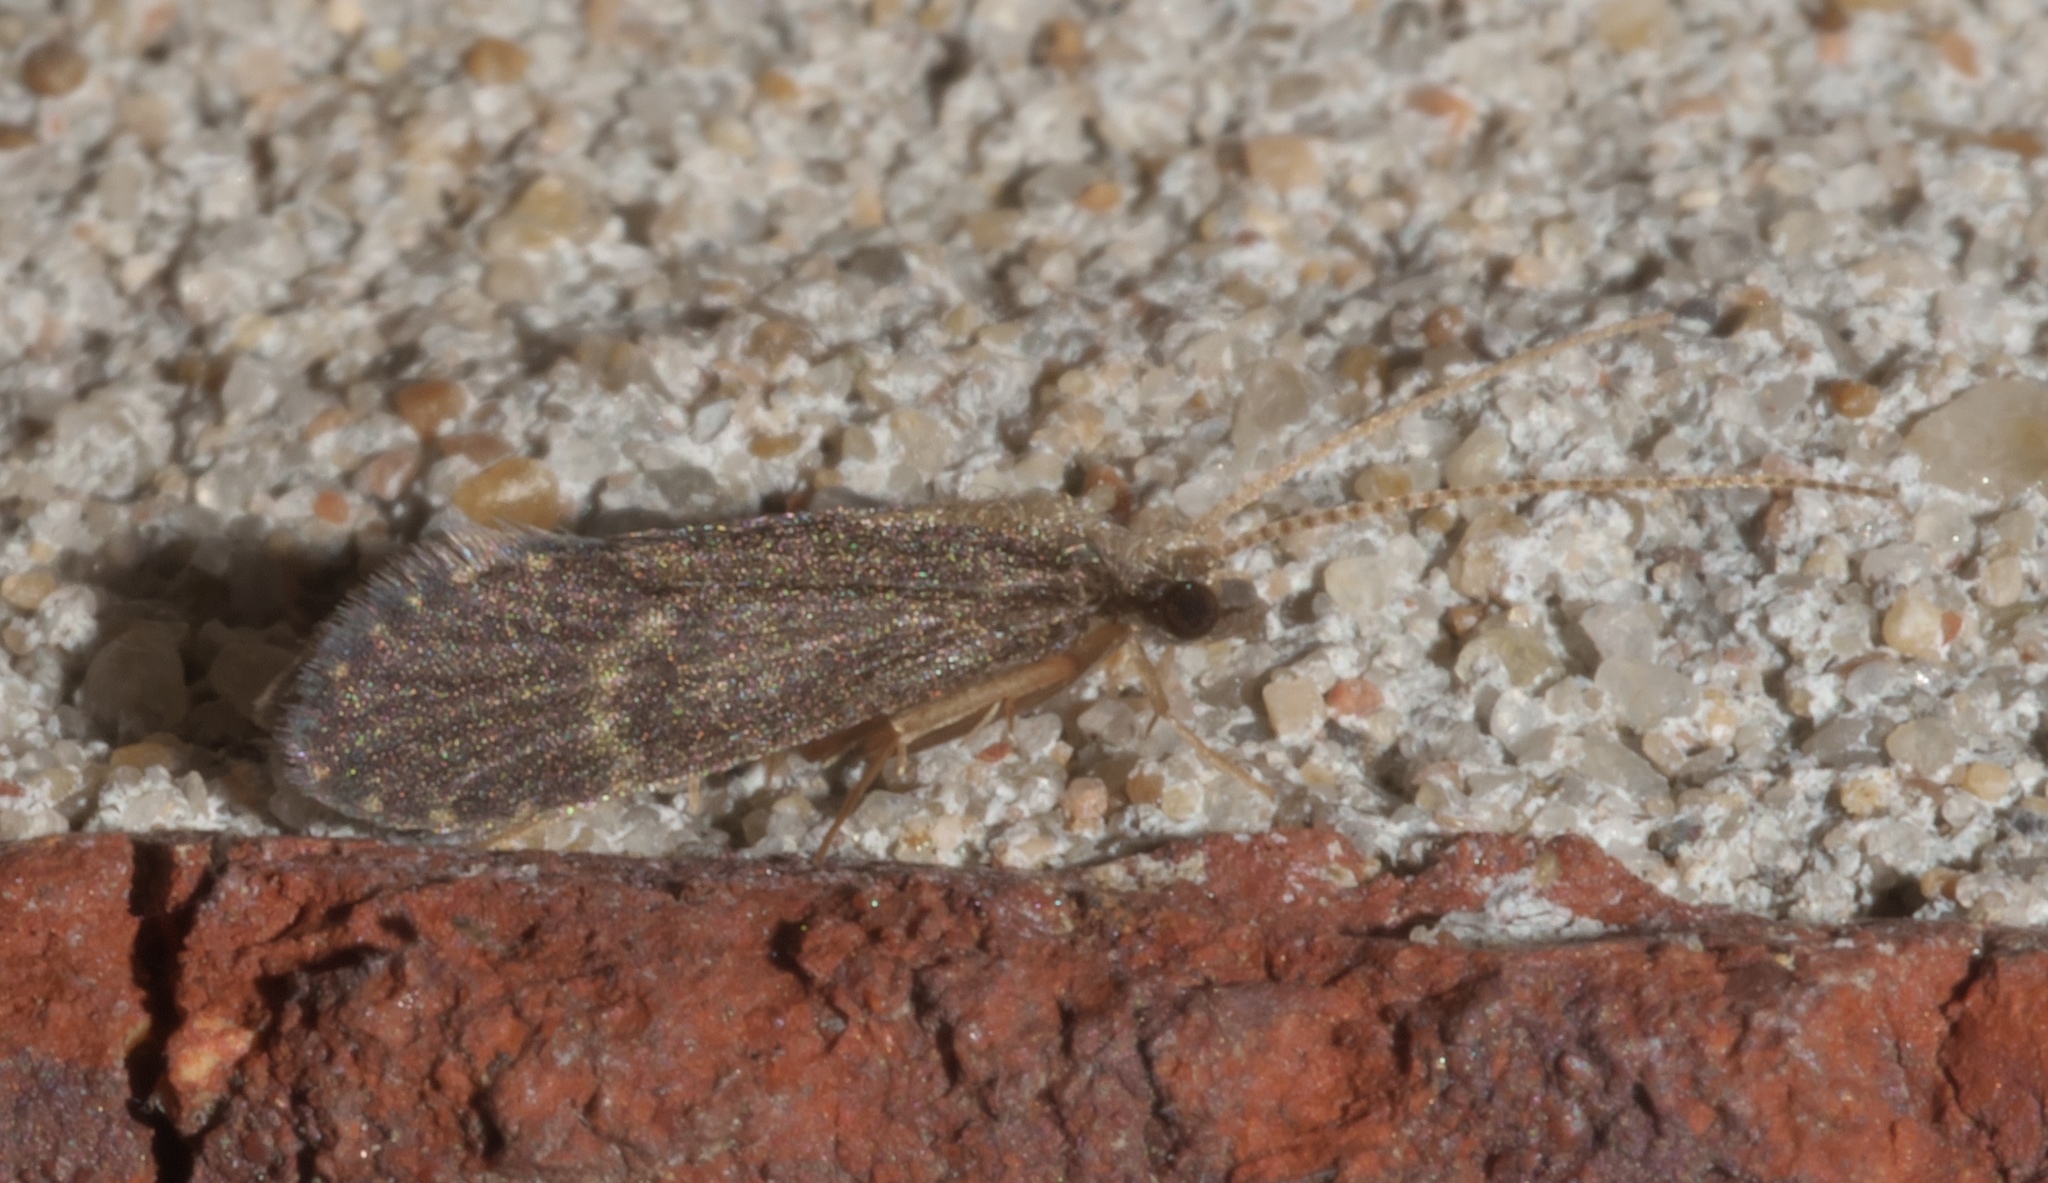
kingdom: Animalia
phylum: Arthropoda
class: Insecta
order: Trichoptera
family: Polycentropodidae
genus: Cyrnellus
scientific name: Cyrnellus fraternus
